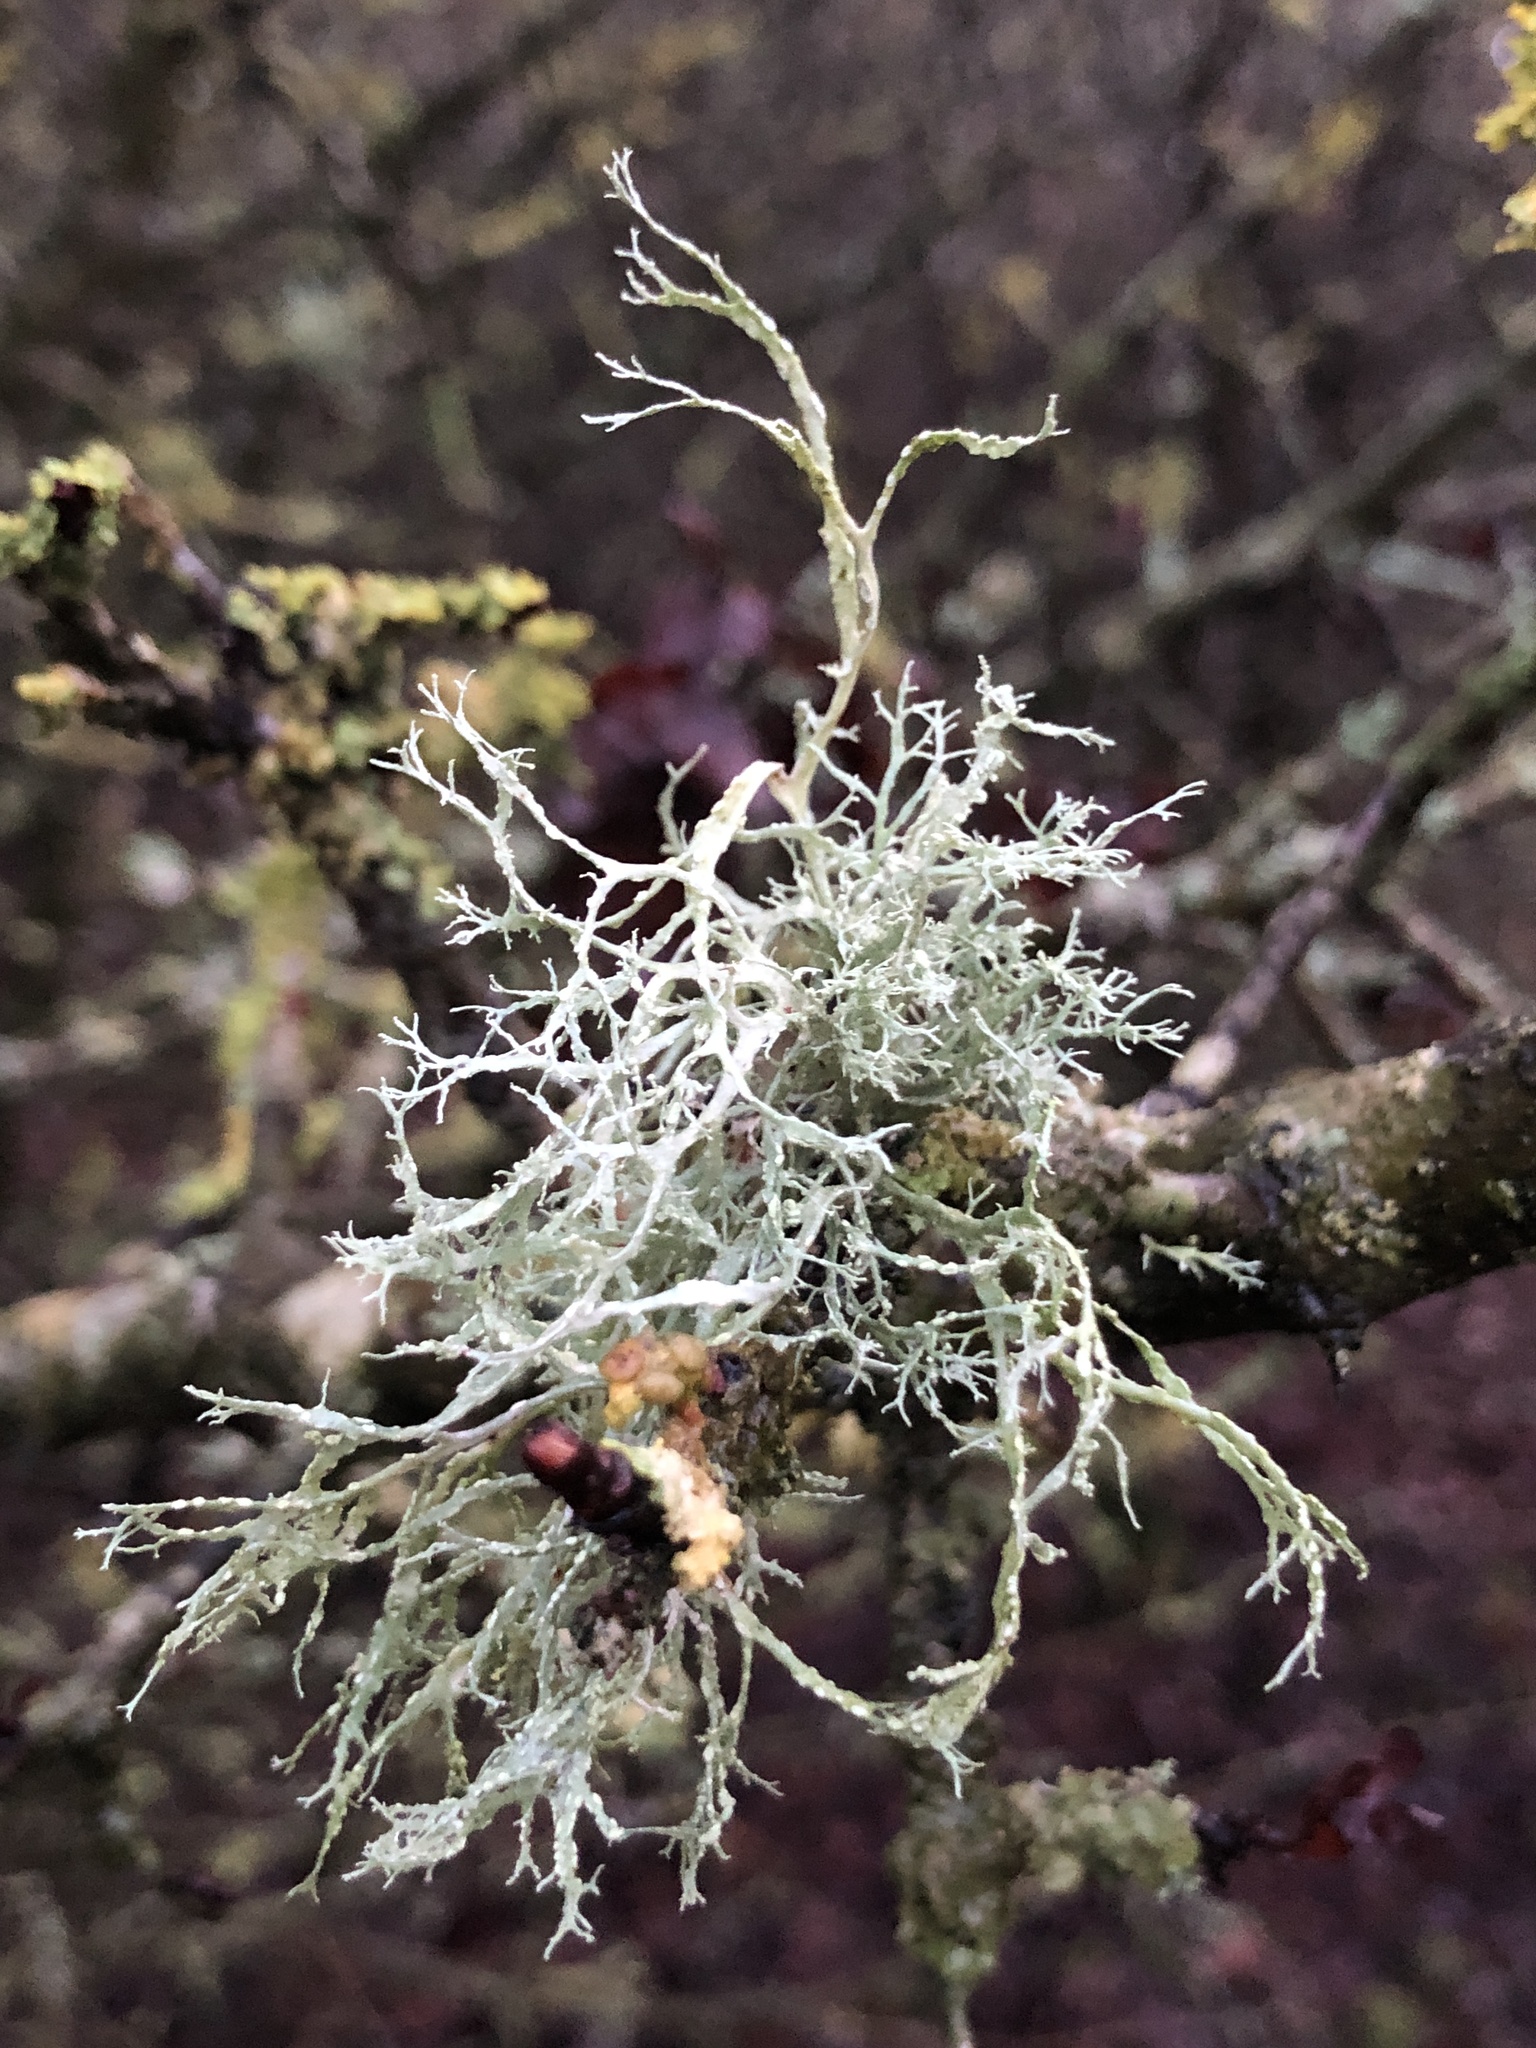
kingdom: Fungi
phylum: Ascomycota
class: Lecanoromycetes
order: Lecanorales
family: Ramalinaceae
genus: Ramalina
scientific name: Ramalina farinacea
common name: Farinose cartilage lichen
